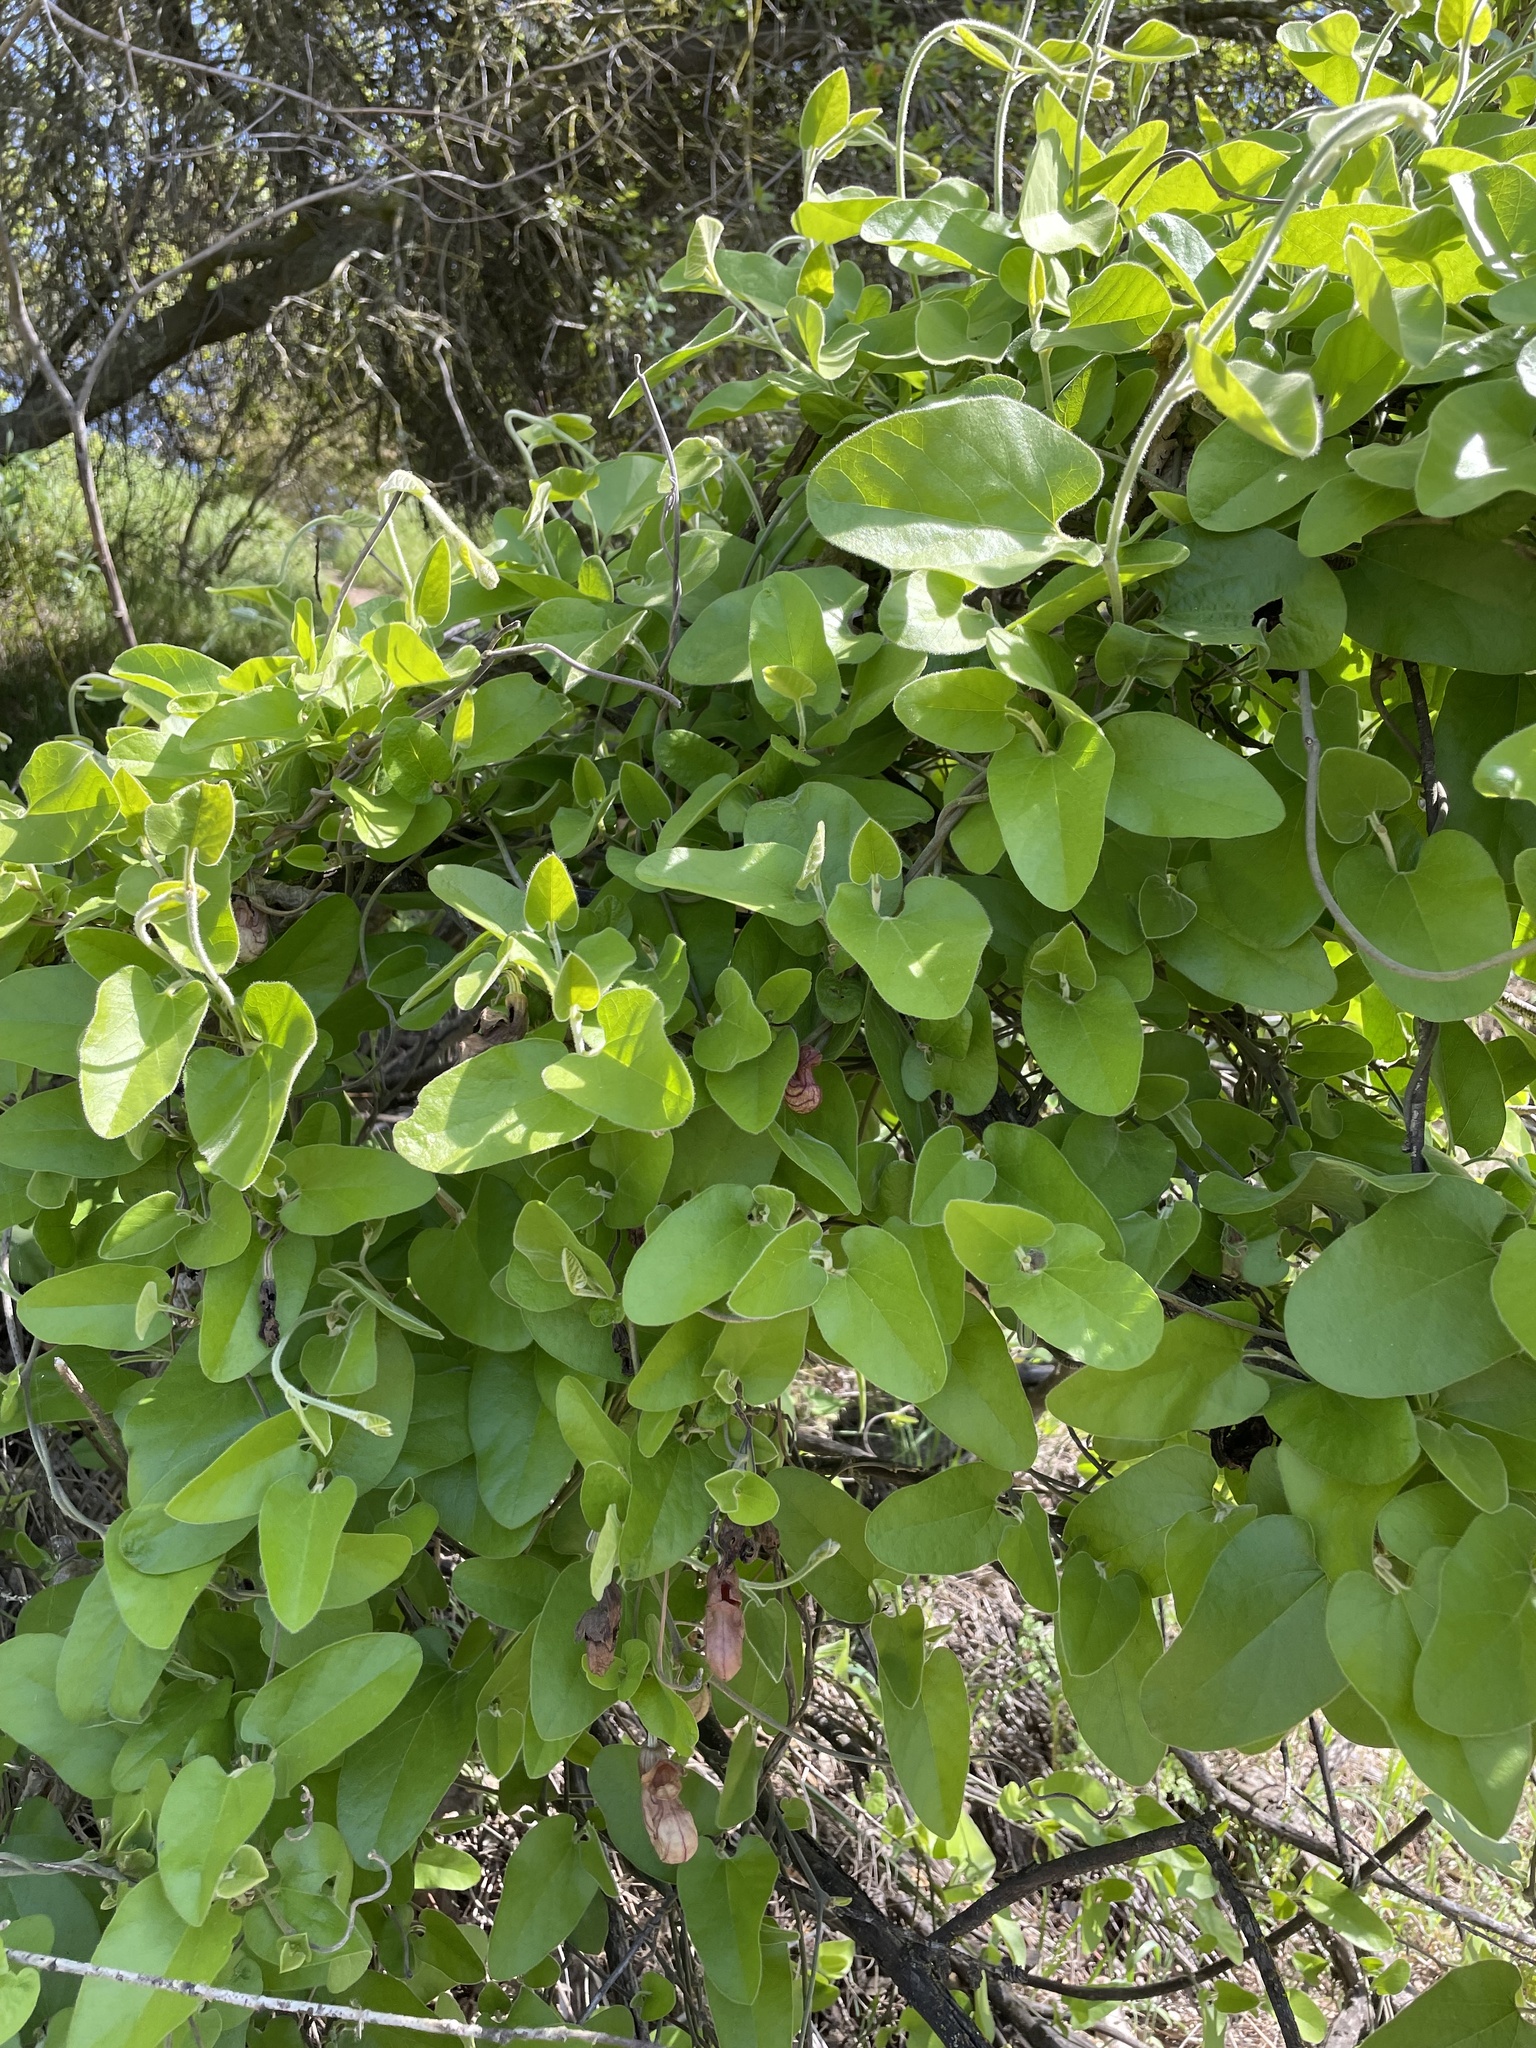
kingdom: Plantae
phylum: Tracheophyta
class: Magnoliopsida
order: Piperales
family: Aristolochiaceae
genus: Isotrema
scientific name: Isotrema californicum
